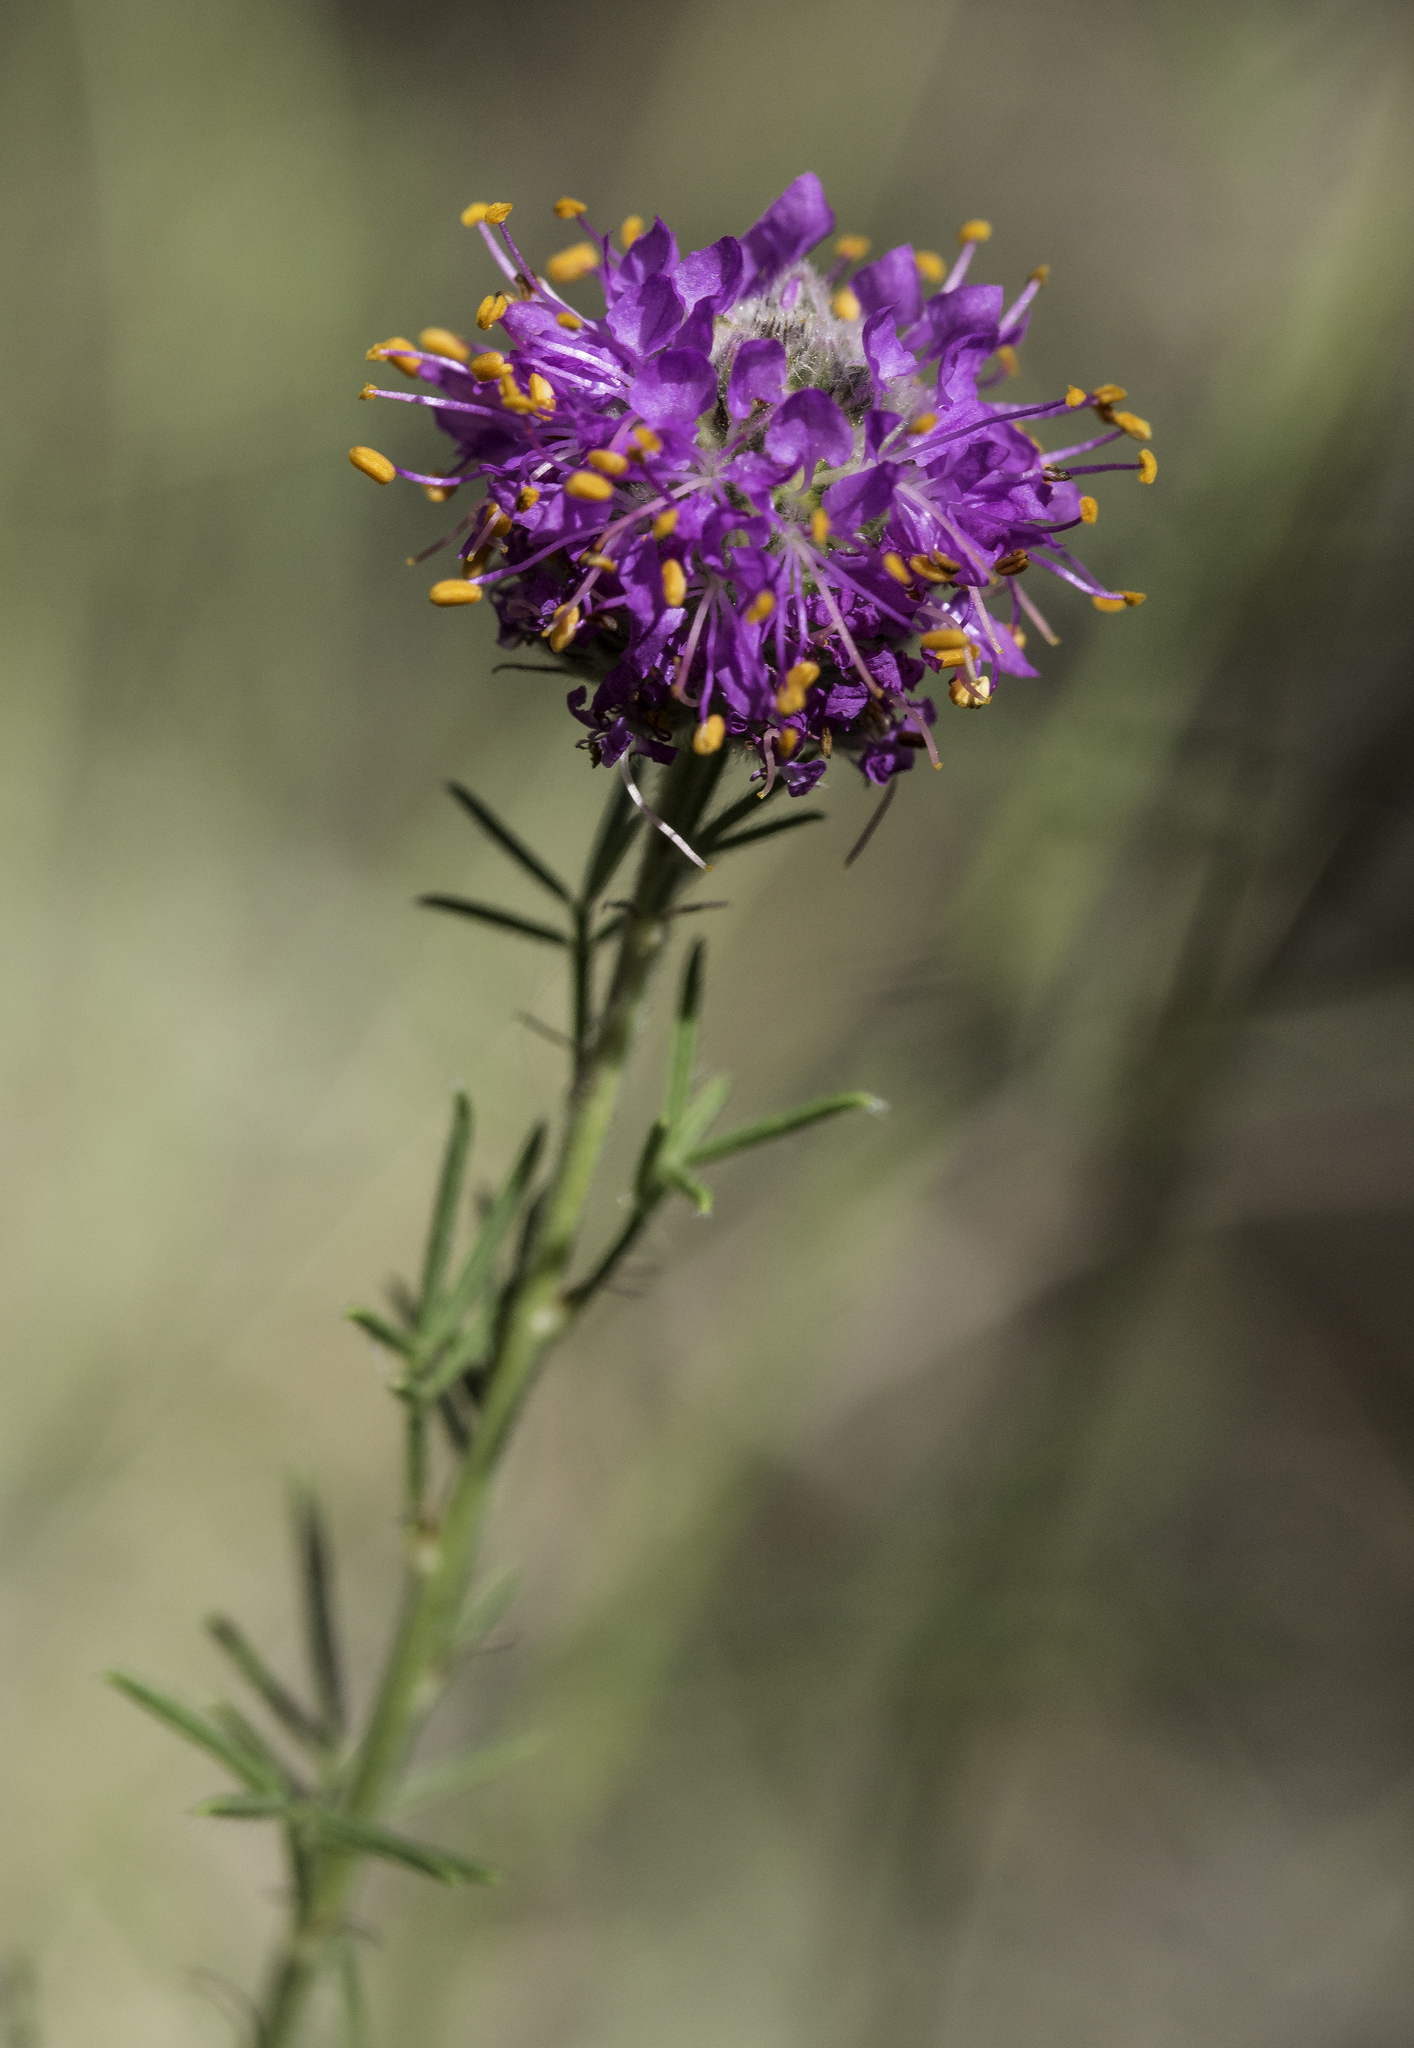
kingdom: Plantae
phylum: Tracheophyta
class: Magnoliopsida
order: Fabales
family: Fabaceae
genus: Dalea
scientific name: Dalea purpurea
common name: Purple prairie-clover
